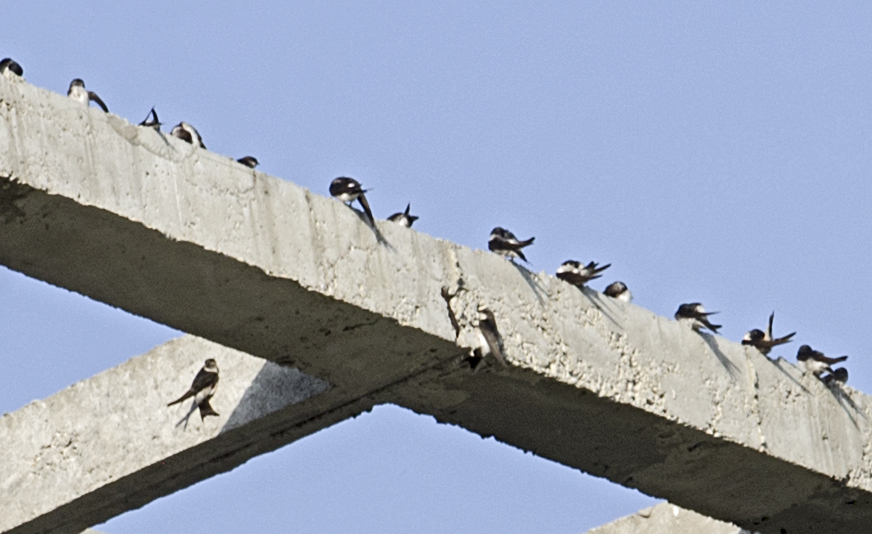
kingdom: Animalia
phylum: Chordata
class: Aves
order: Passeriformes
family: Hirundinidae
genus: Delichon
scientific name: Delichon urbicum
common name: Common house martin
